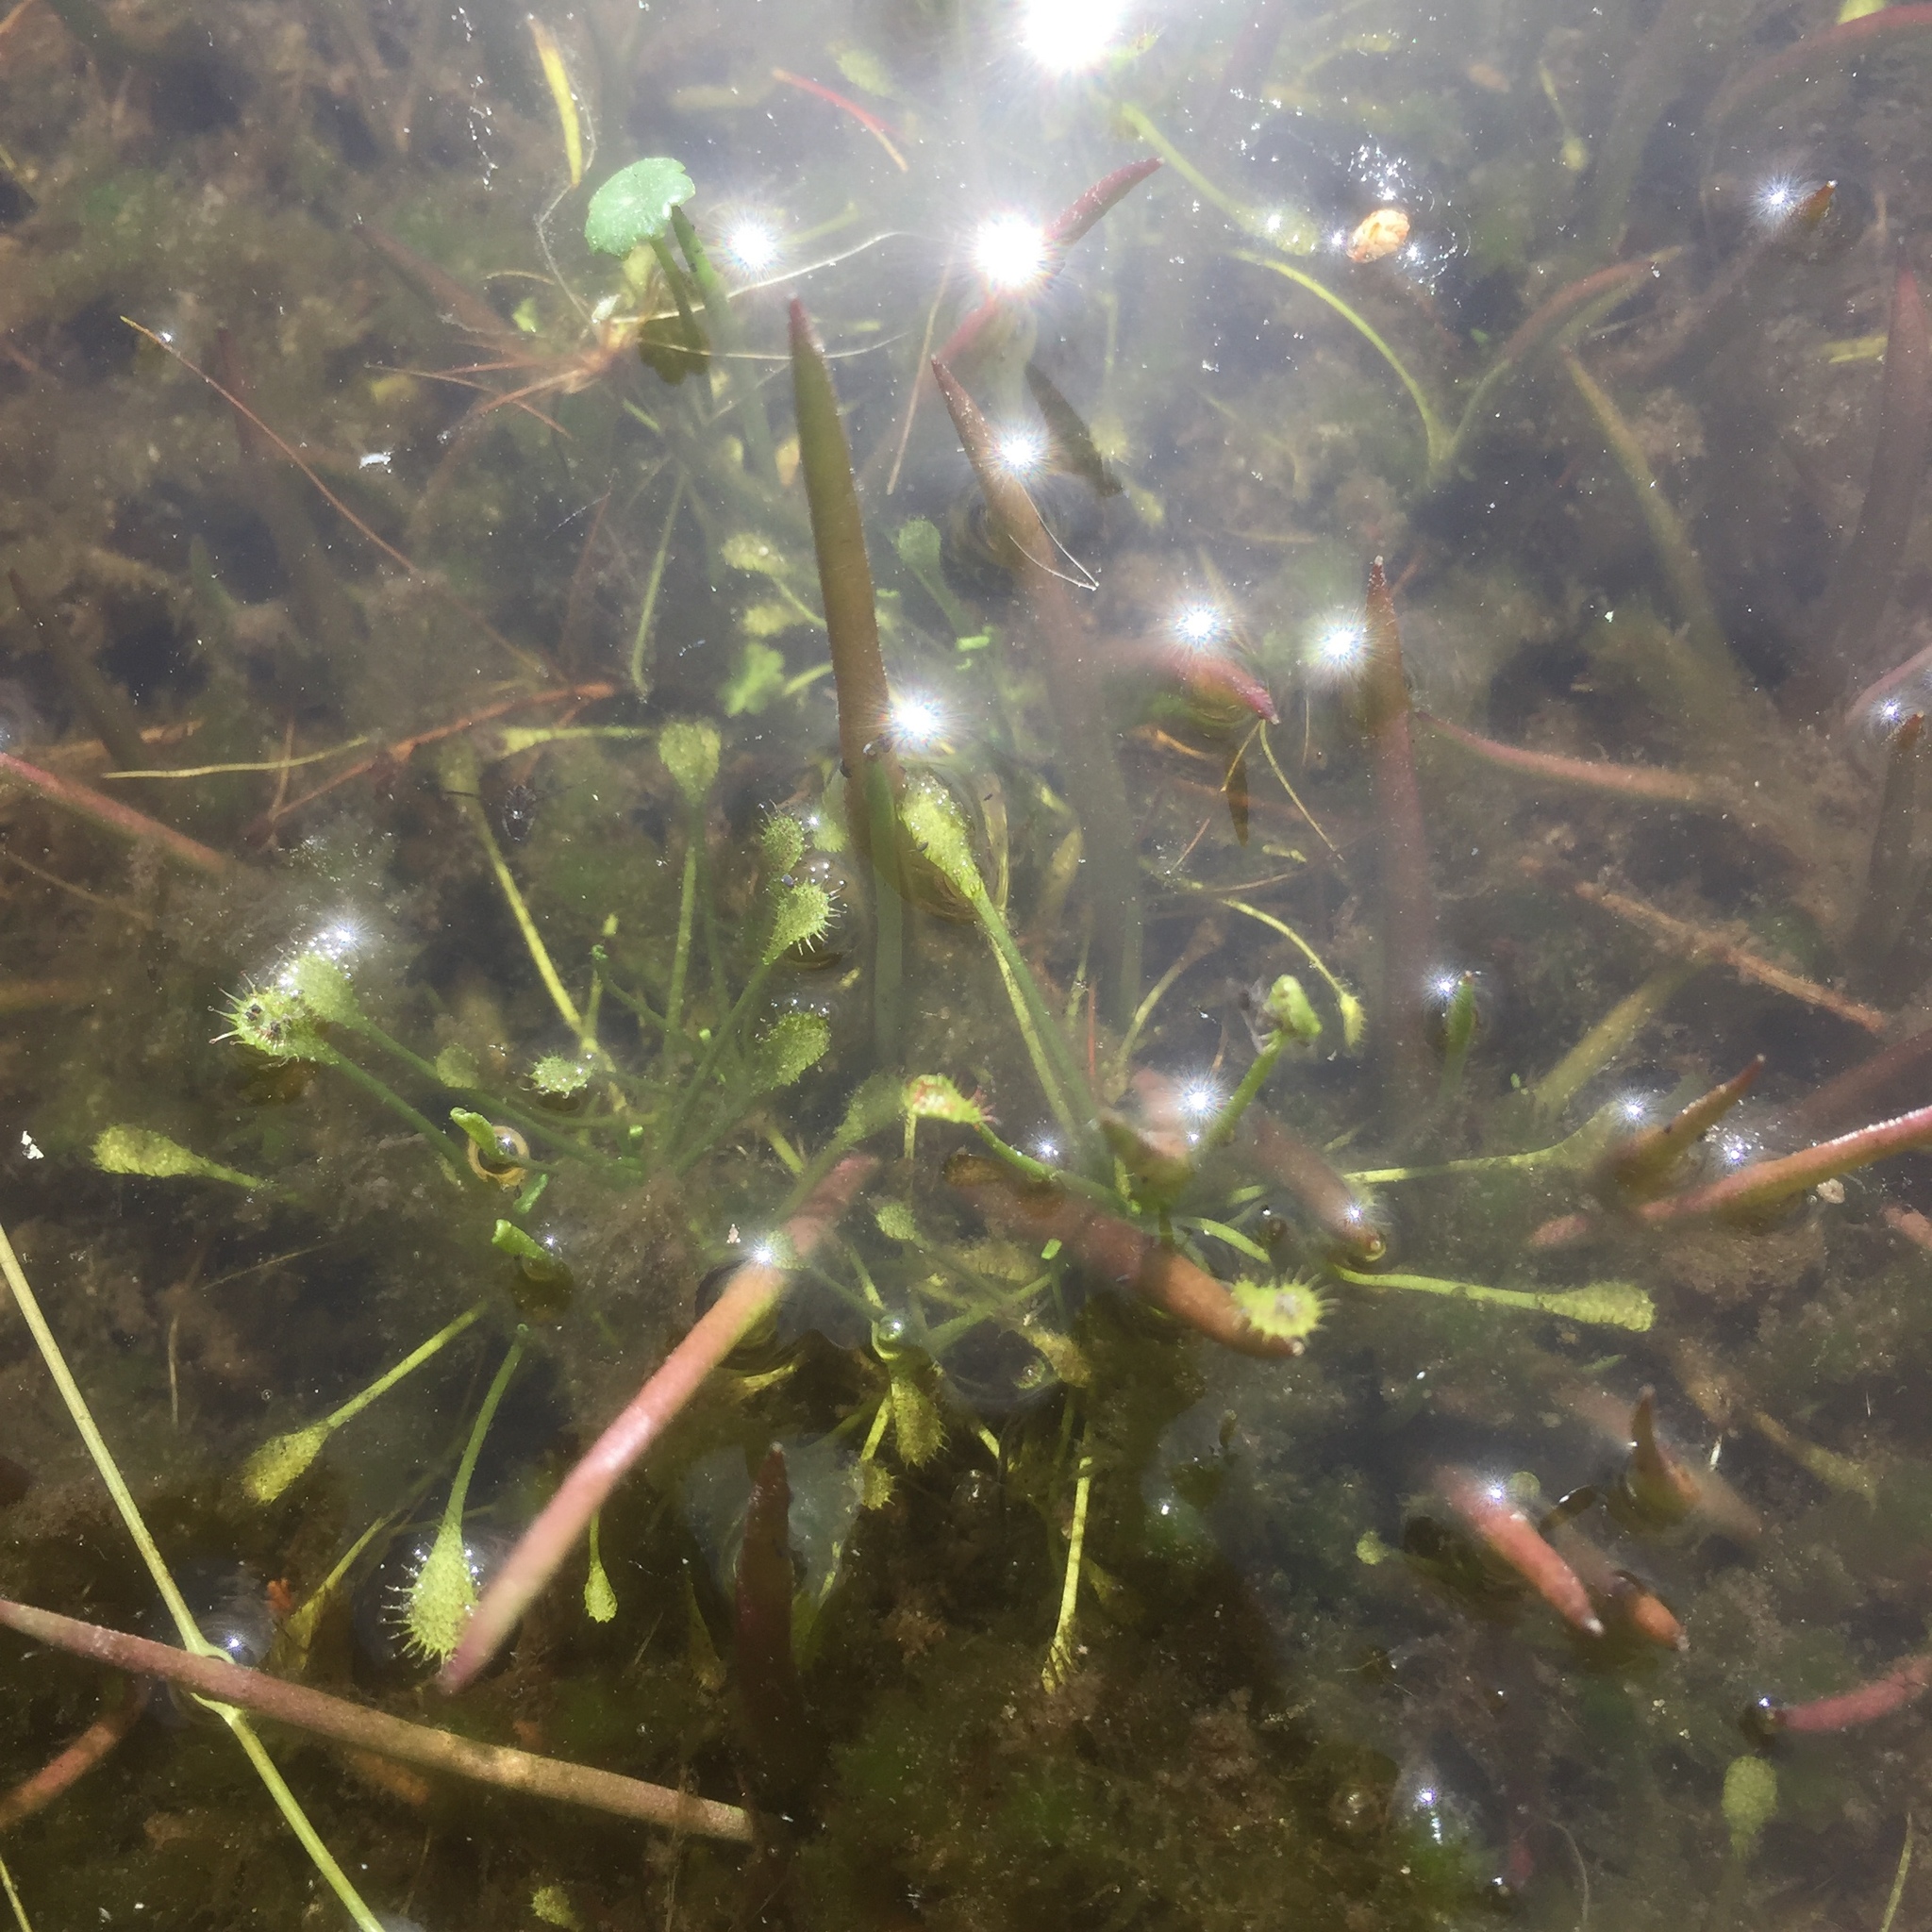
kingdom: Plantae
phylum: Tracheophyta
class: Magnoliopsida
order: Caryophyllales
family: Droseraceae
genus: Drosera
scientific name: Drosera intermedia
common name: Oblong-leaved sundew
